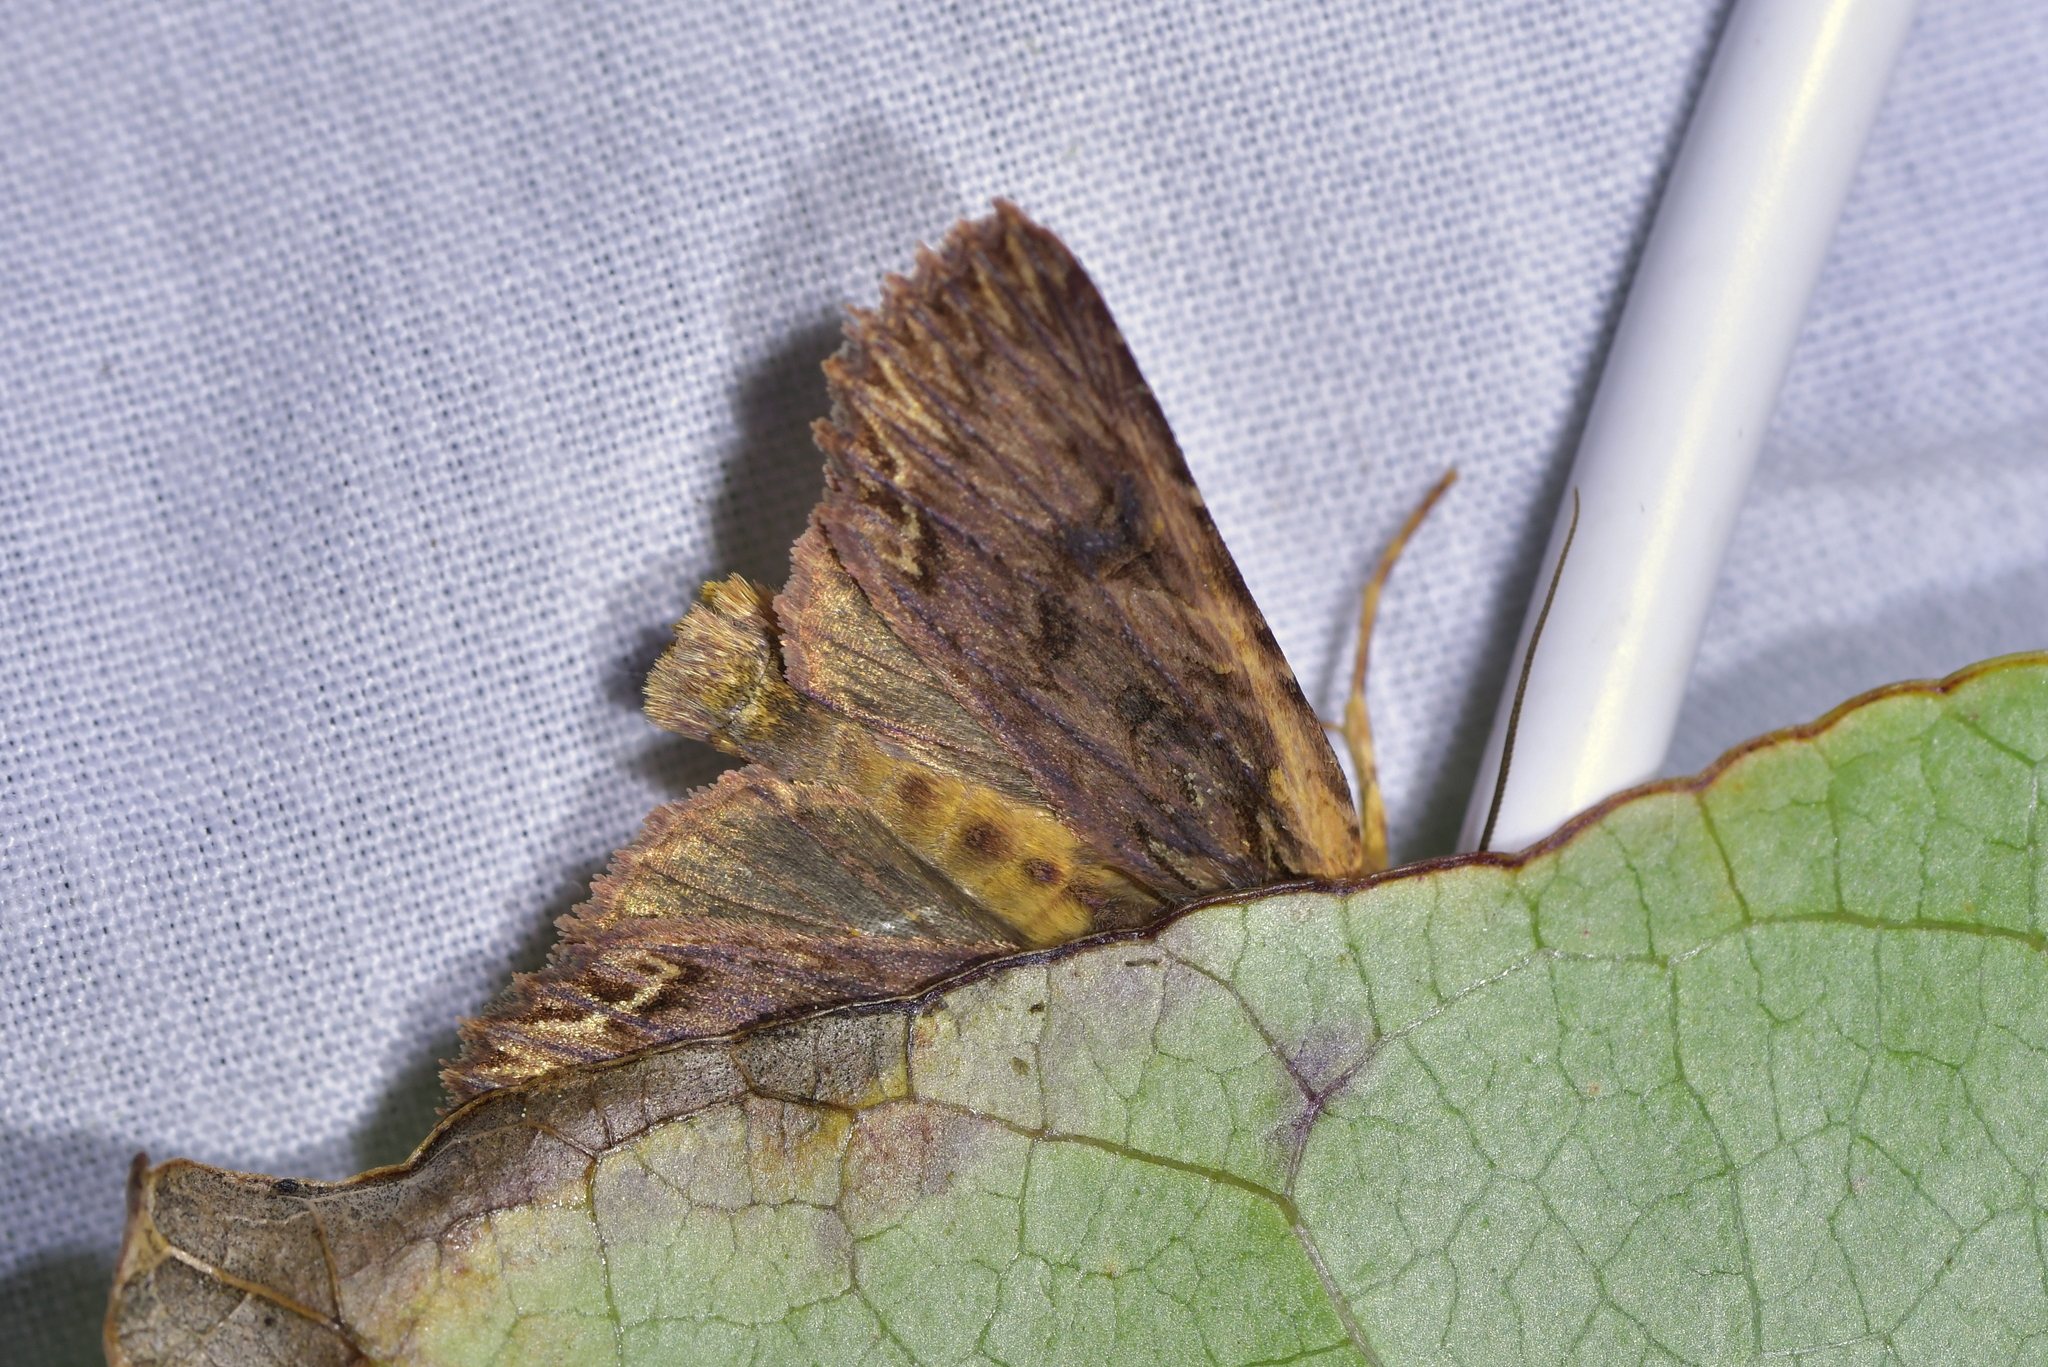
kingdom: Animalia
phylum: Arthropoda
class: Insecta
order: Lepidoptera
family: Noctuidae
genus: Meterana
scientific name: Meterana alcyone
